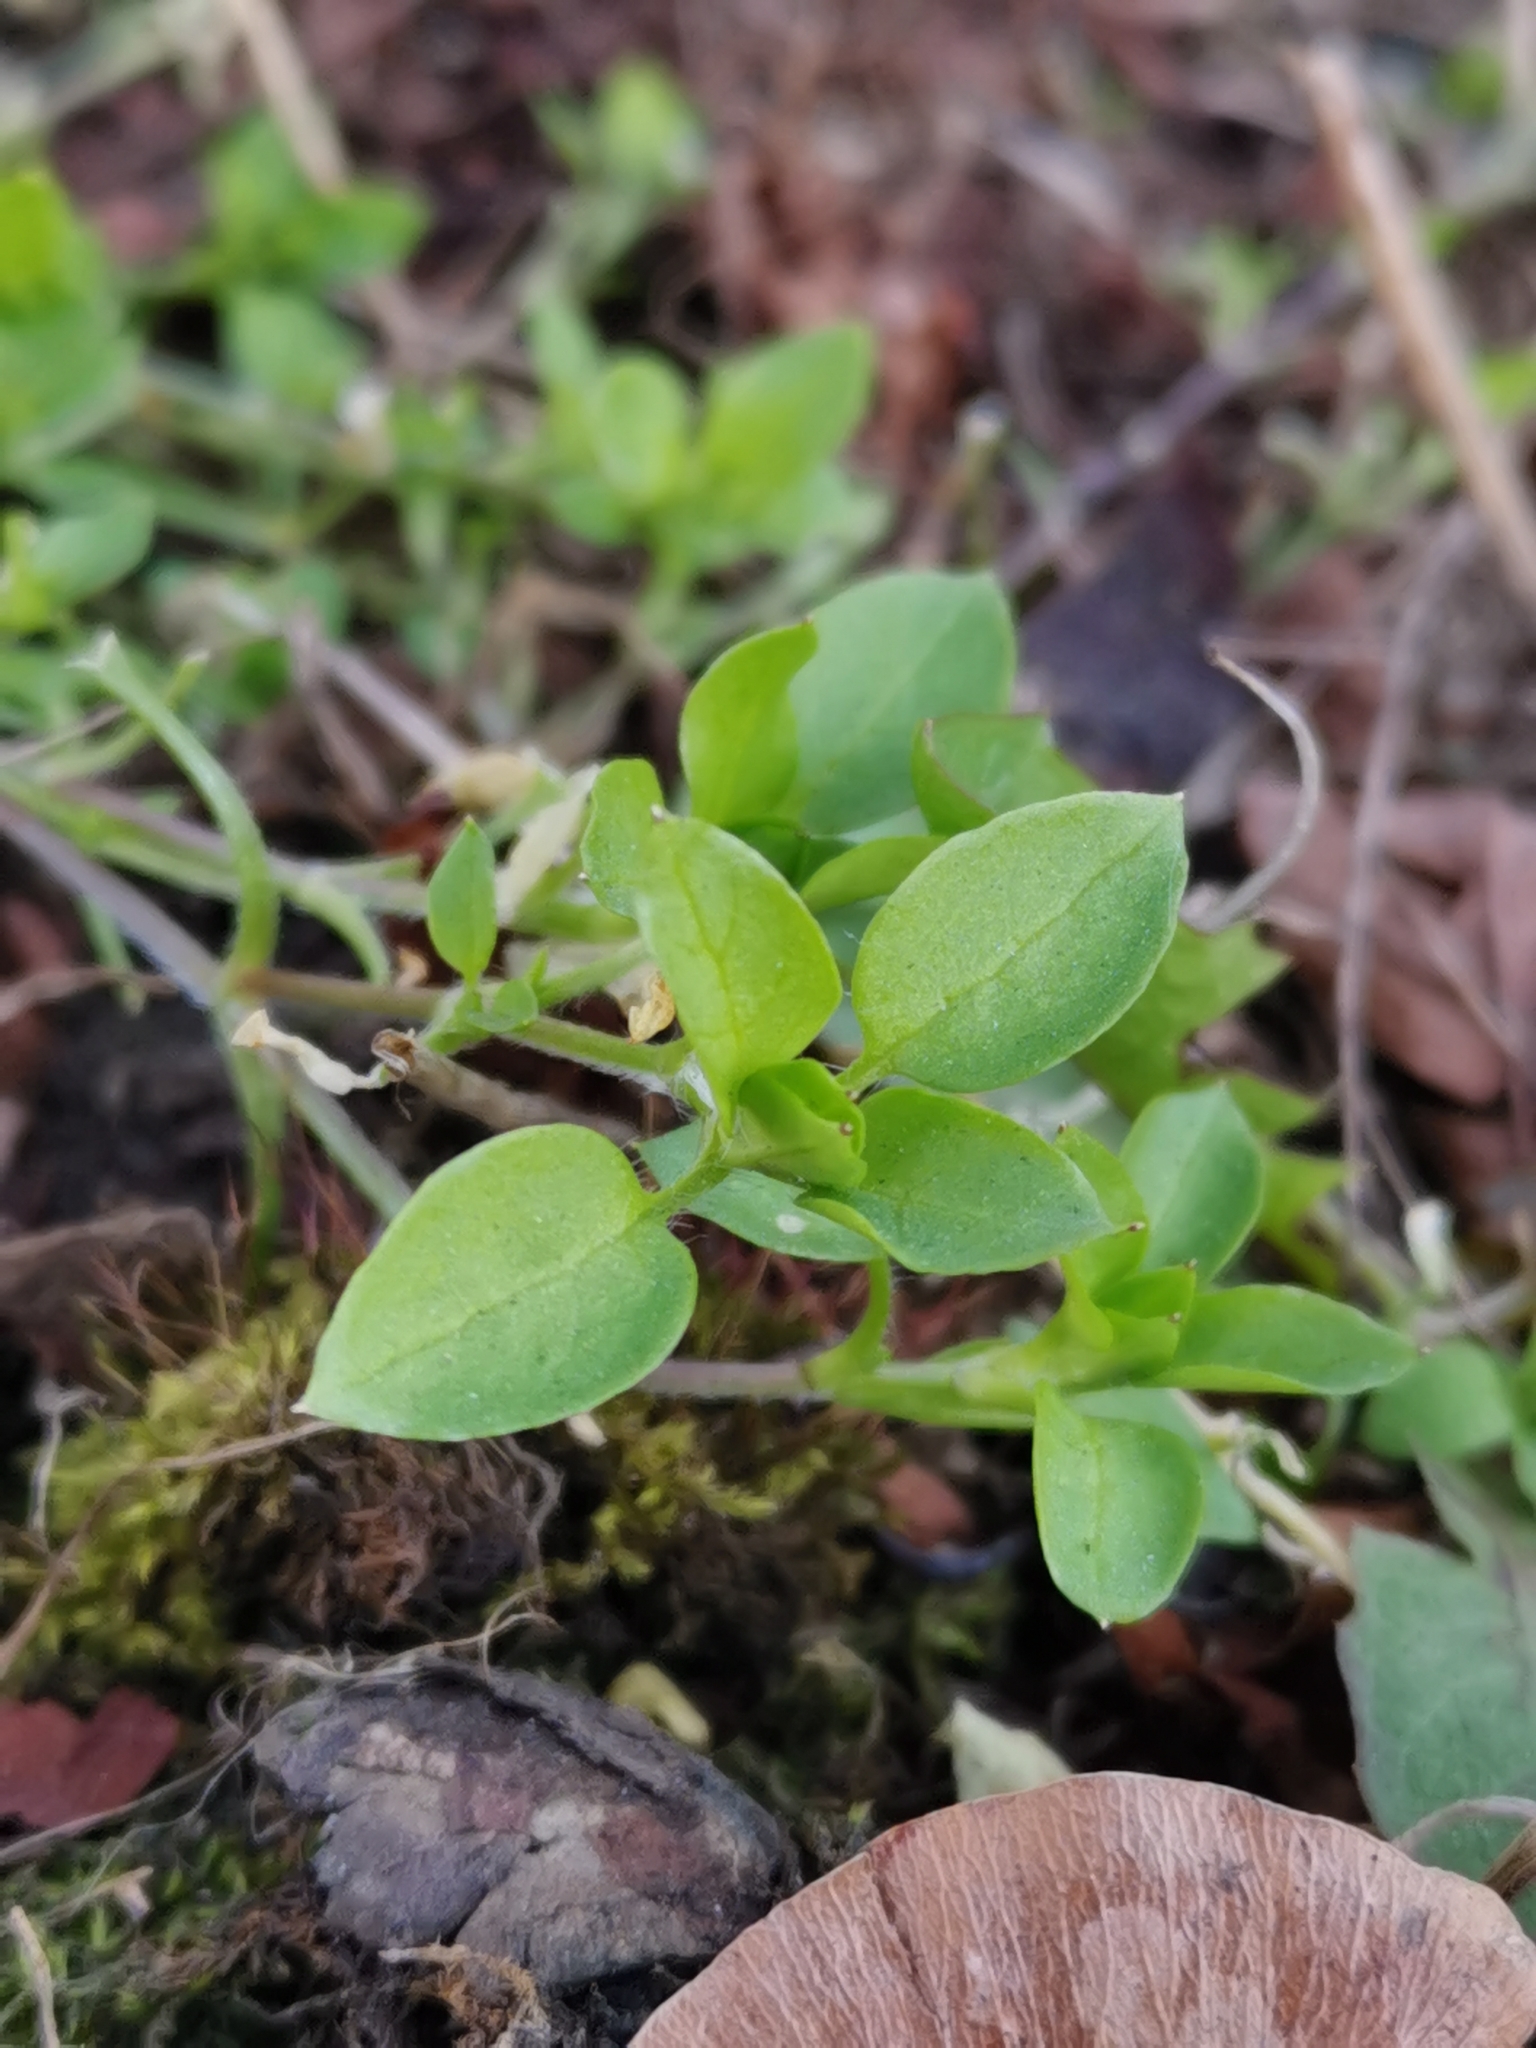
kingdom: Plantae
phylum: Tracheophyta
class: Magnoliopsida
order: Caryophyllales
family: Caryophyllaceae
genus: Stellaria
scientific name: Stellaria media
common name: Common chickweed
